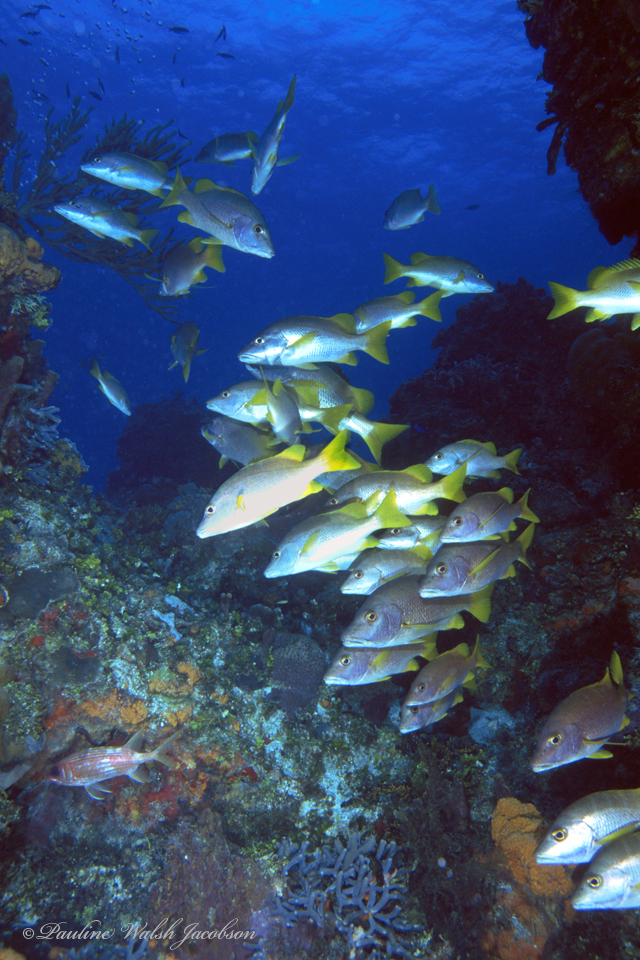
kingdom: Animalia
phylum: Chordata
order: Perciformes
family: Lutjanidae
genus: Lutjanus
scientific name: Lutjanus apodus
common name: Schoolmaster
